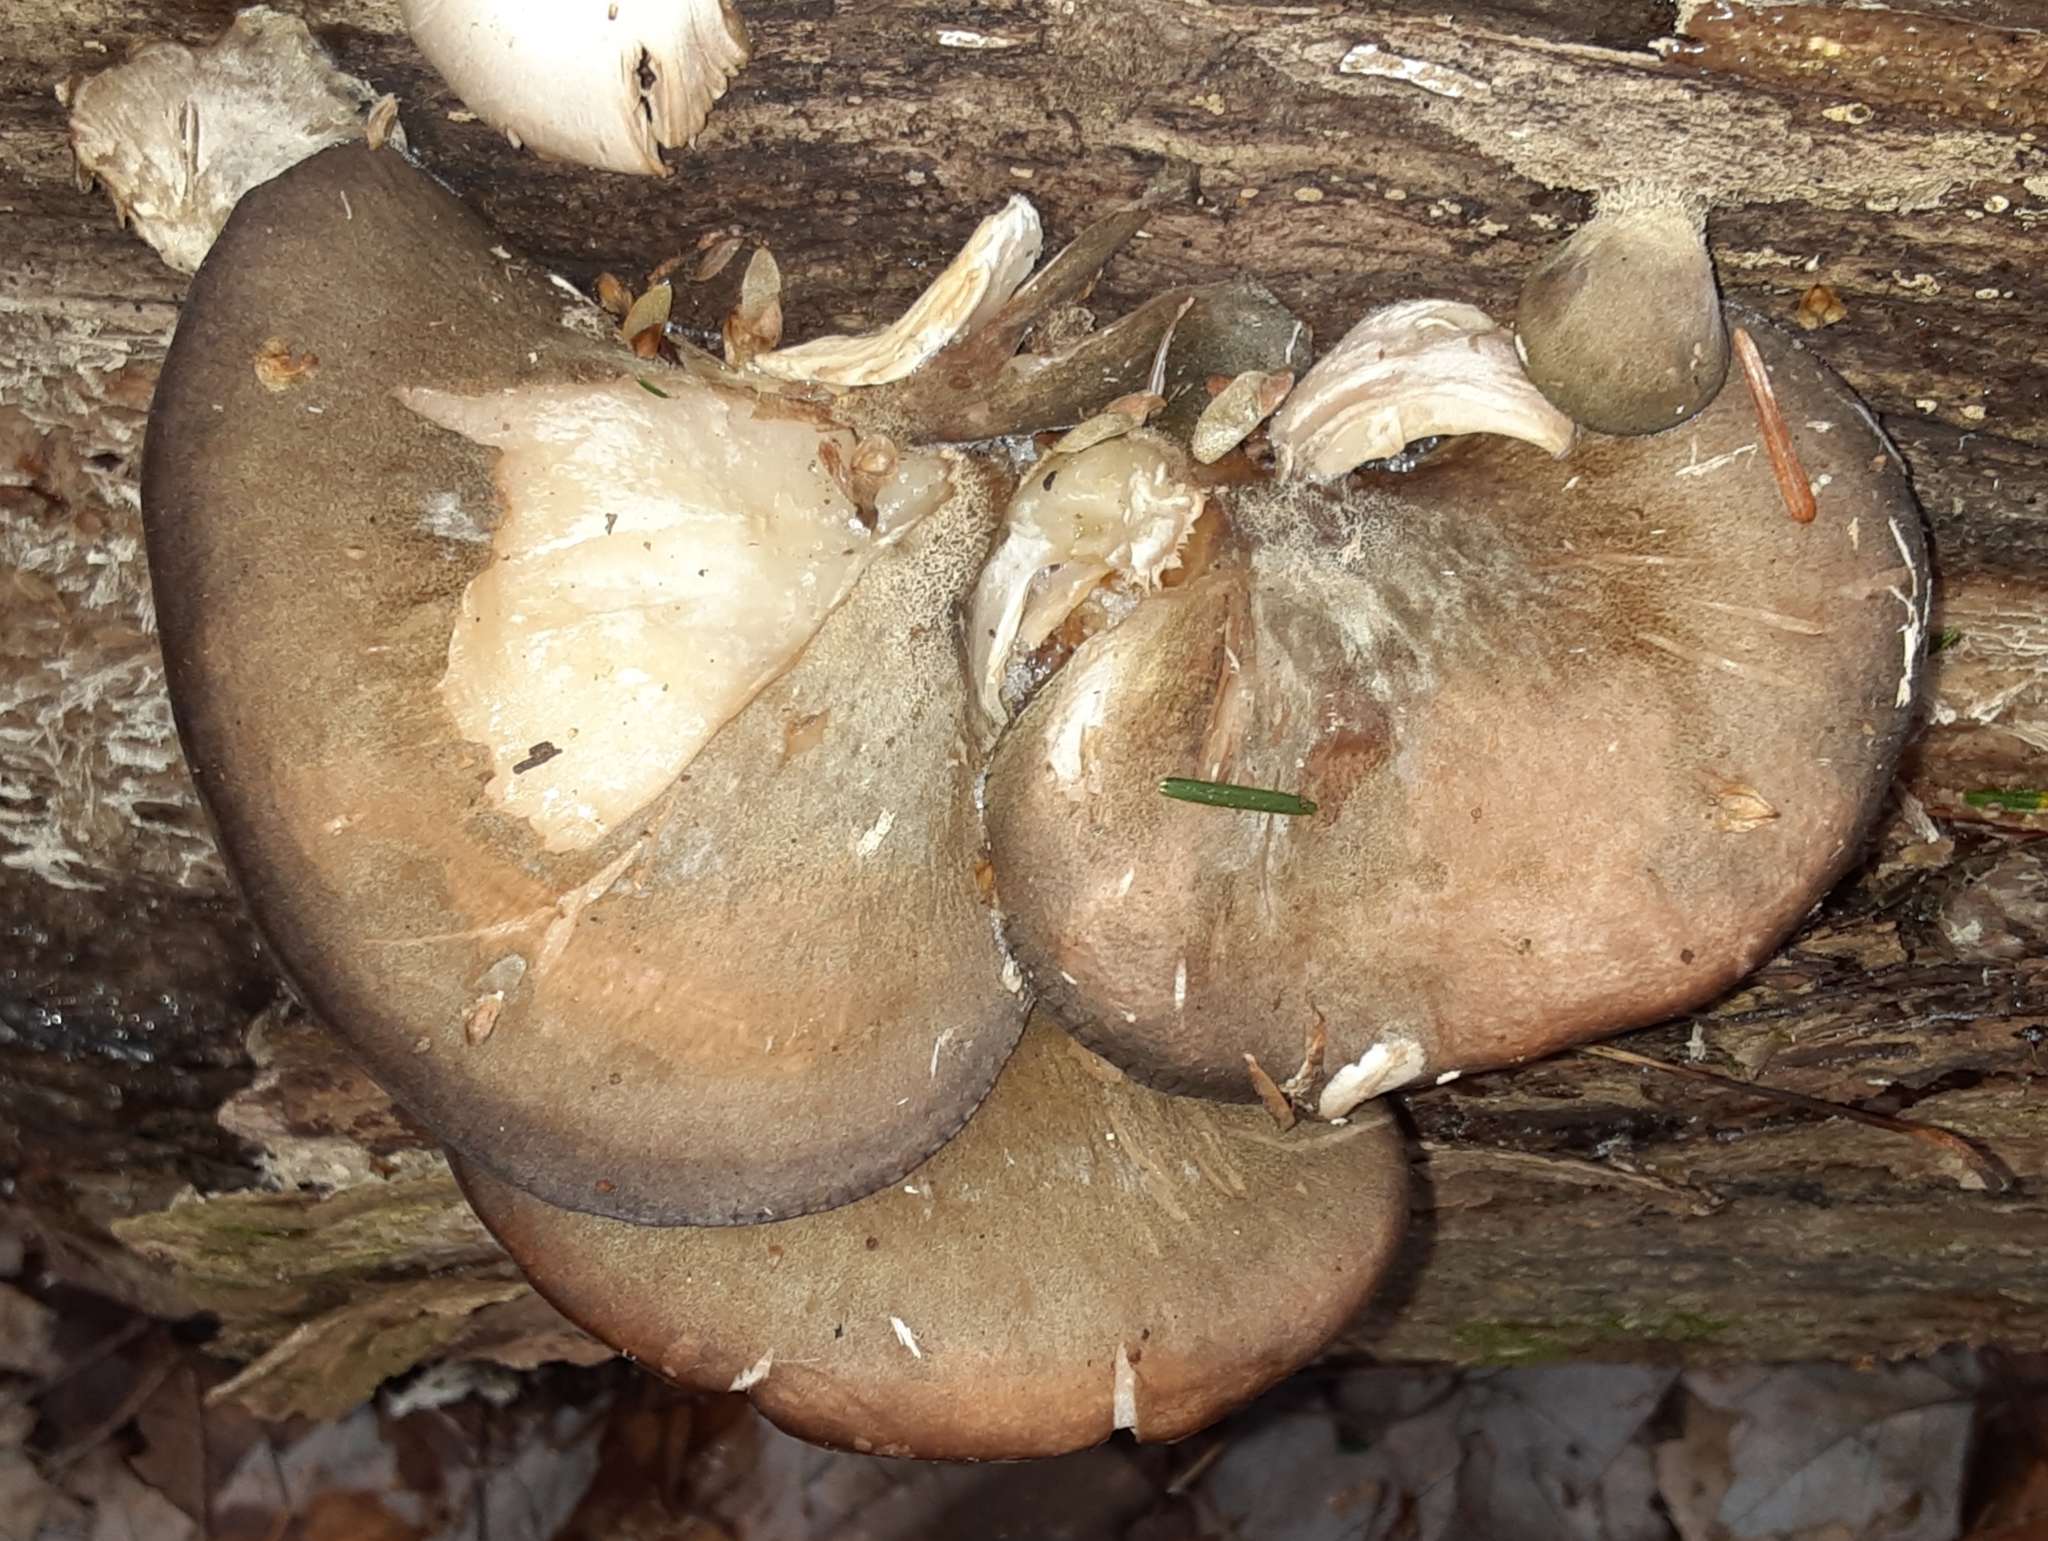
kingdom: Fungi
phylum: Basidiomycota
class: Agaricomycetes
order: Agaricales
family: Sarcomyxaceae
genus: Sarcomyxa
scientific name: Sarcomyxa serotina
